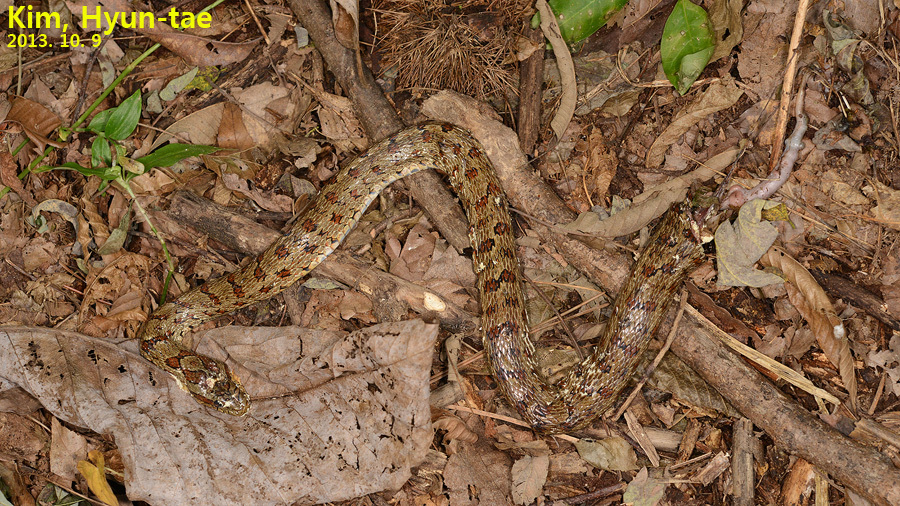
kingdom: Animalia
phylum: Chordata
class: Squamata
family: Colubridae
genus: Elaphe
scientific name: Elaphe dione
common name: Dione ratsnake
